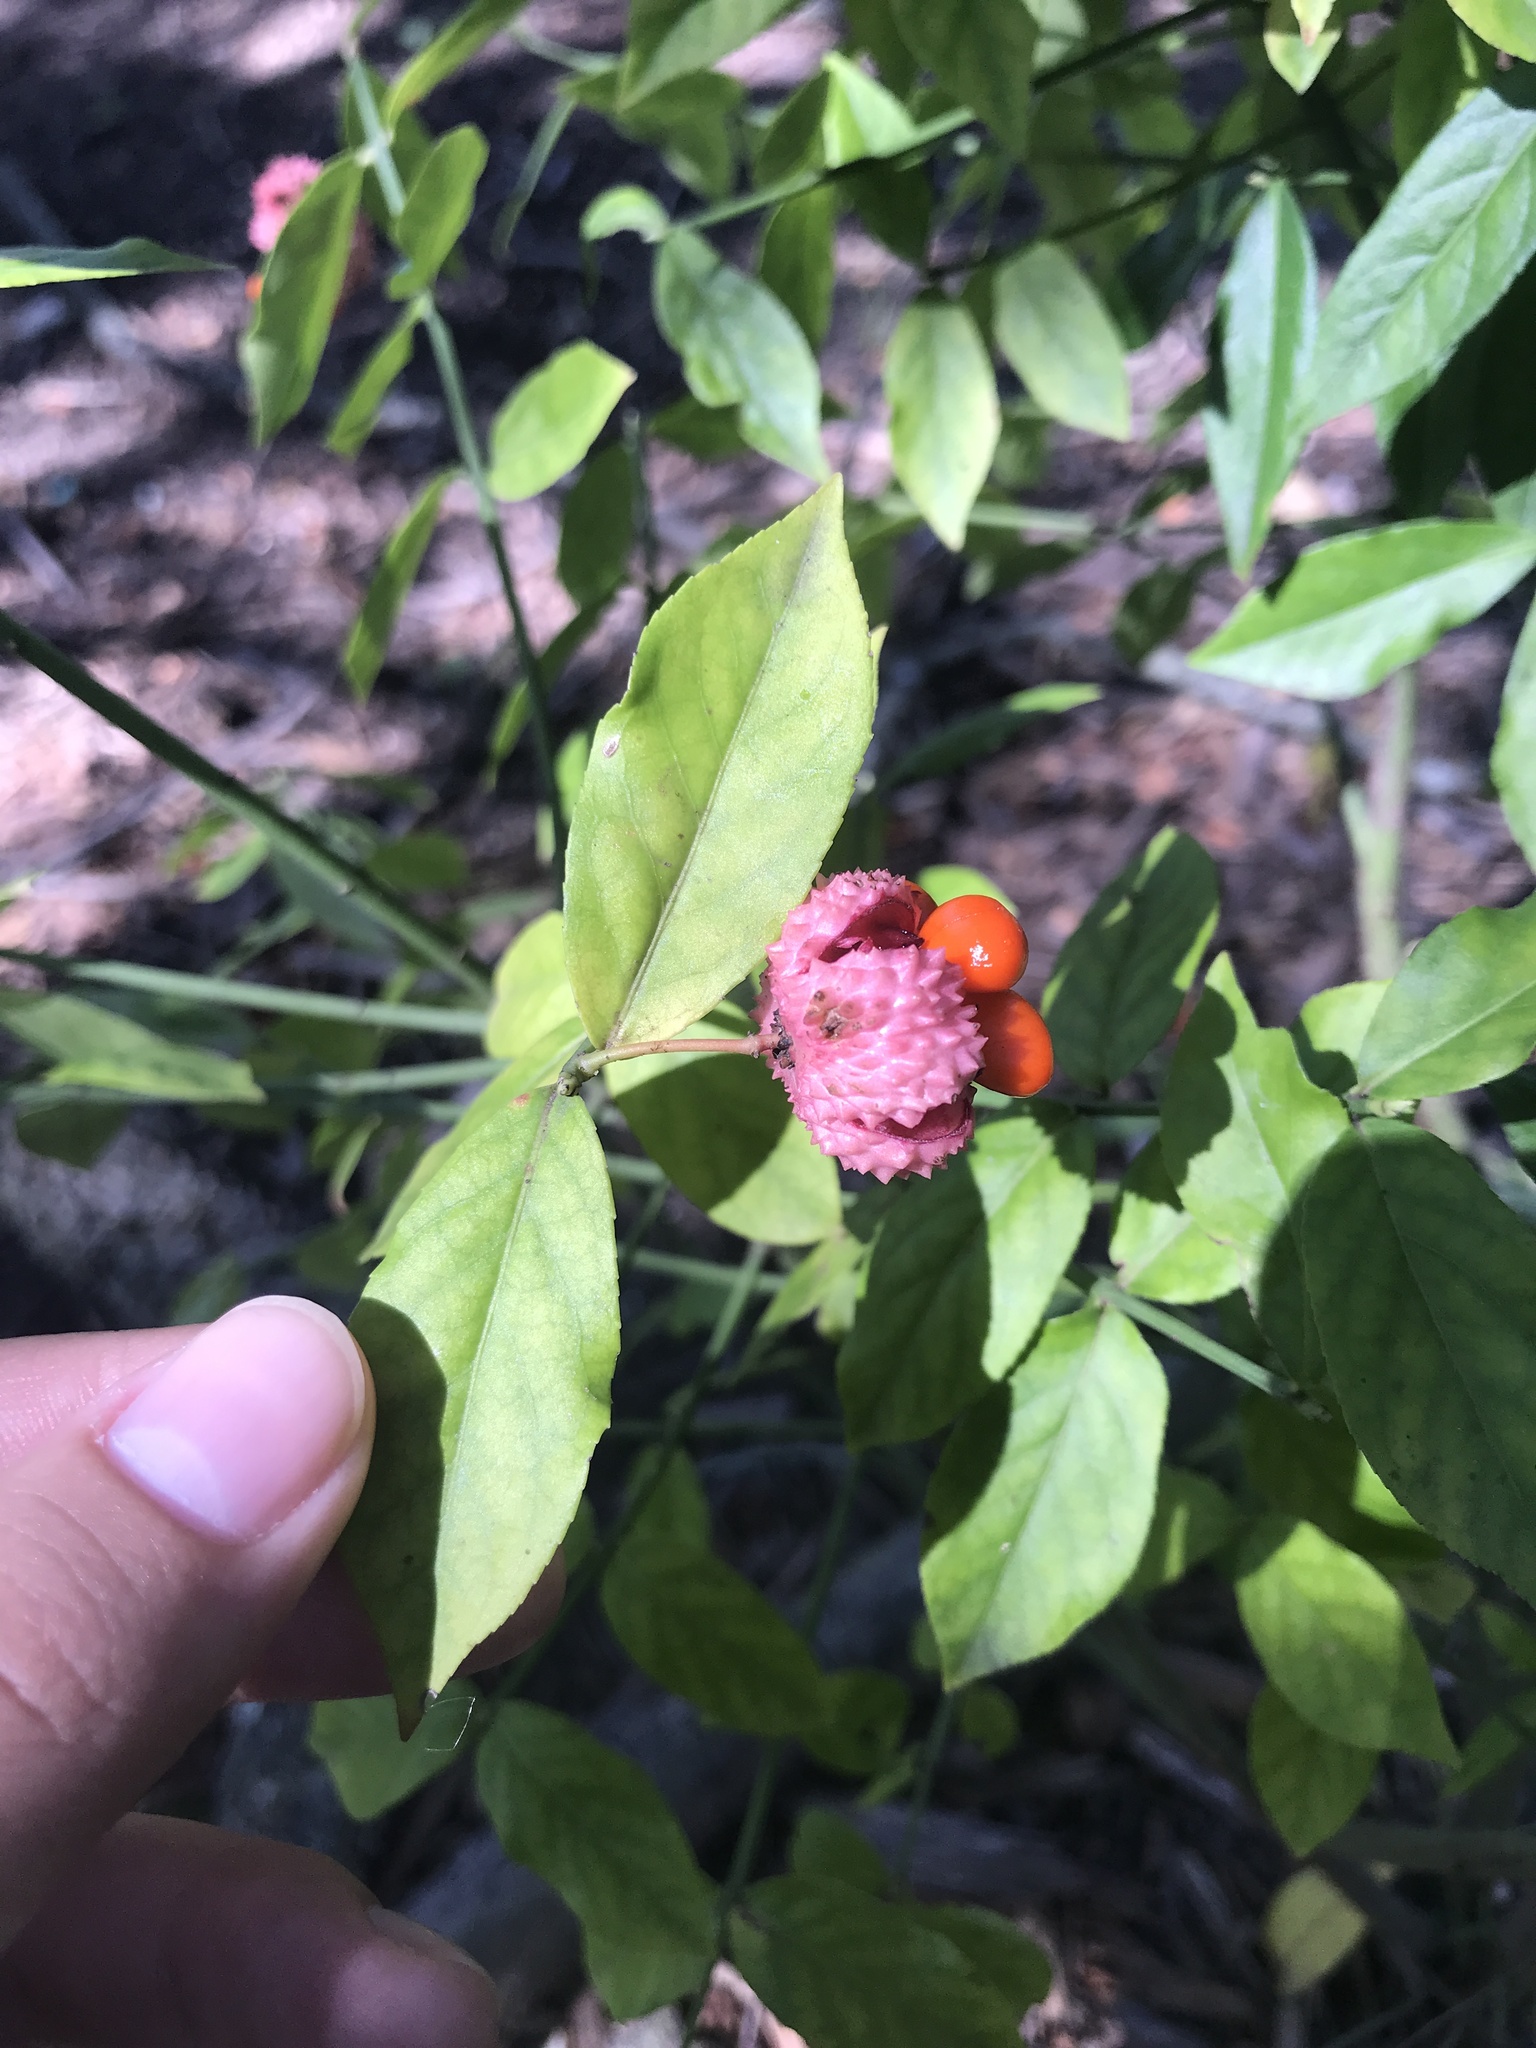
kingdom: Plantae
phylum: Tracheophyta
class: Magnoliopsida
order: Celastrales
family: Celastraceae
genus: Euonymus
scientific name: Euonymus americanus
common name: Bursting-heart
